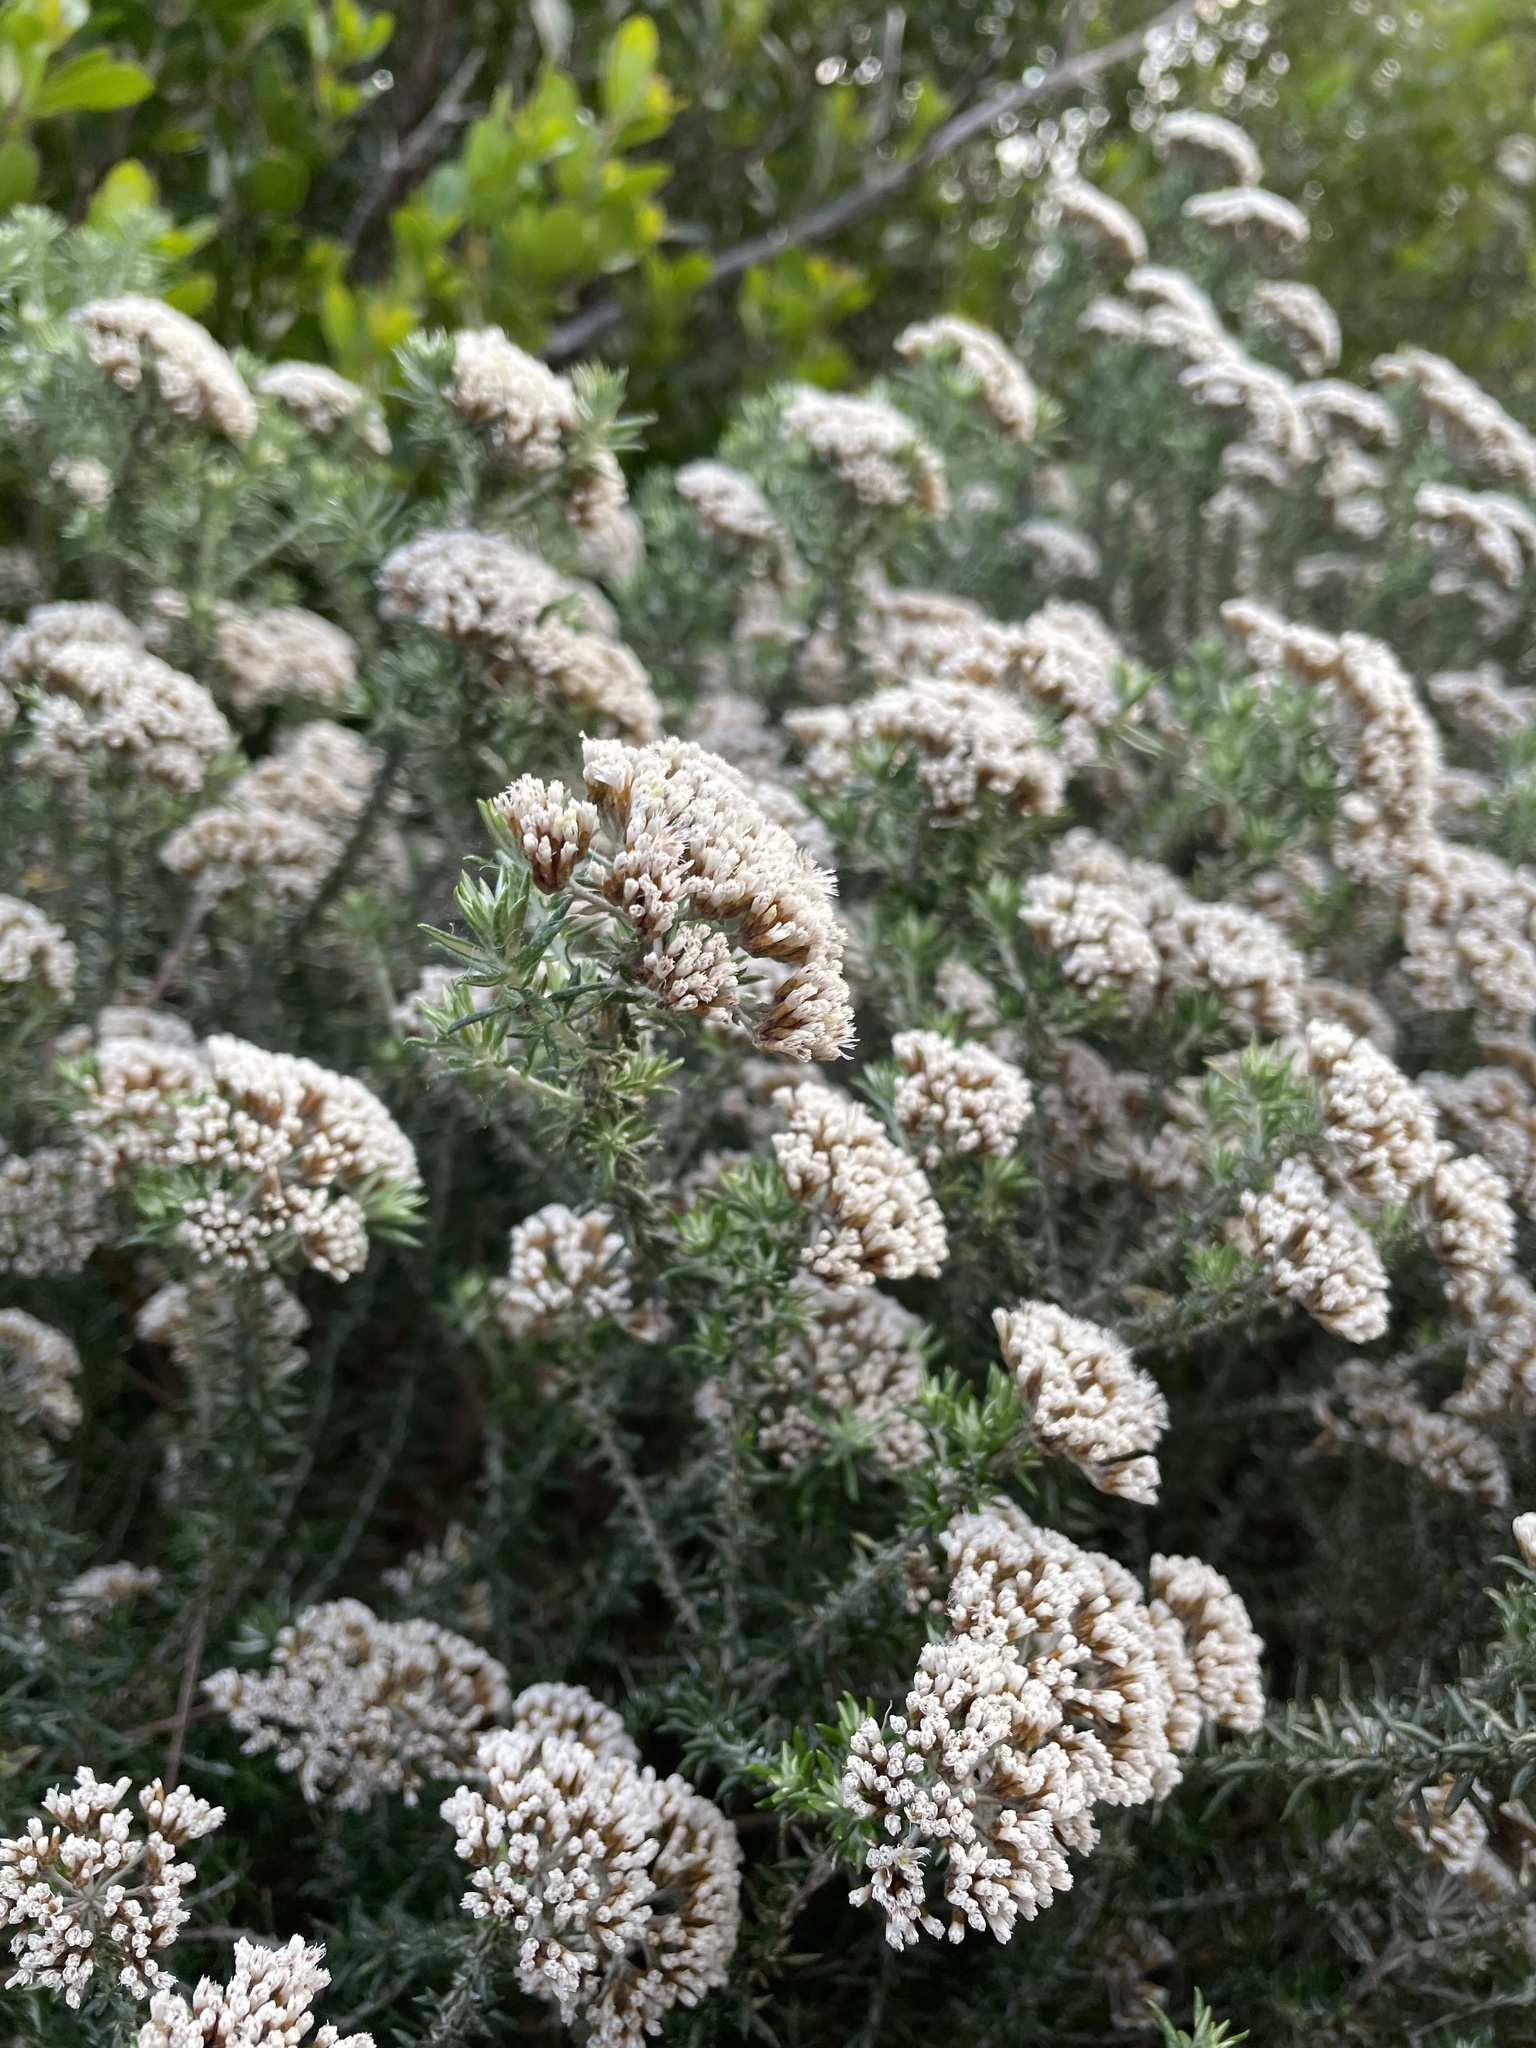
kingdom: Plantae
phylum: Tracheophyta
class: Magnoliopsida
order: Asterales
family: Asteraceae
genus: Metalasia
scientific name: Metalasia densa
